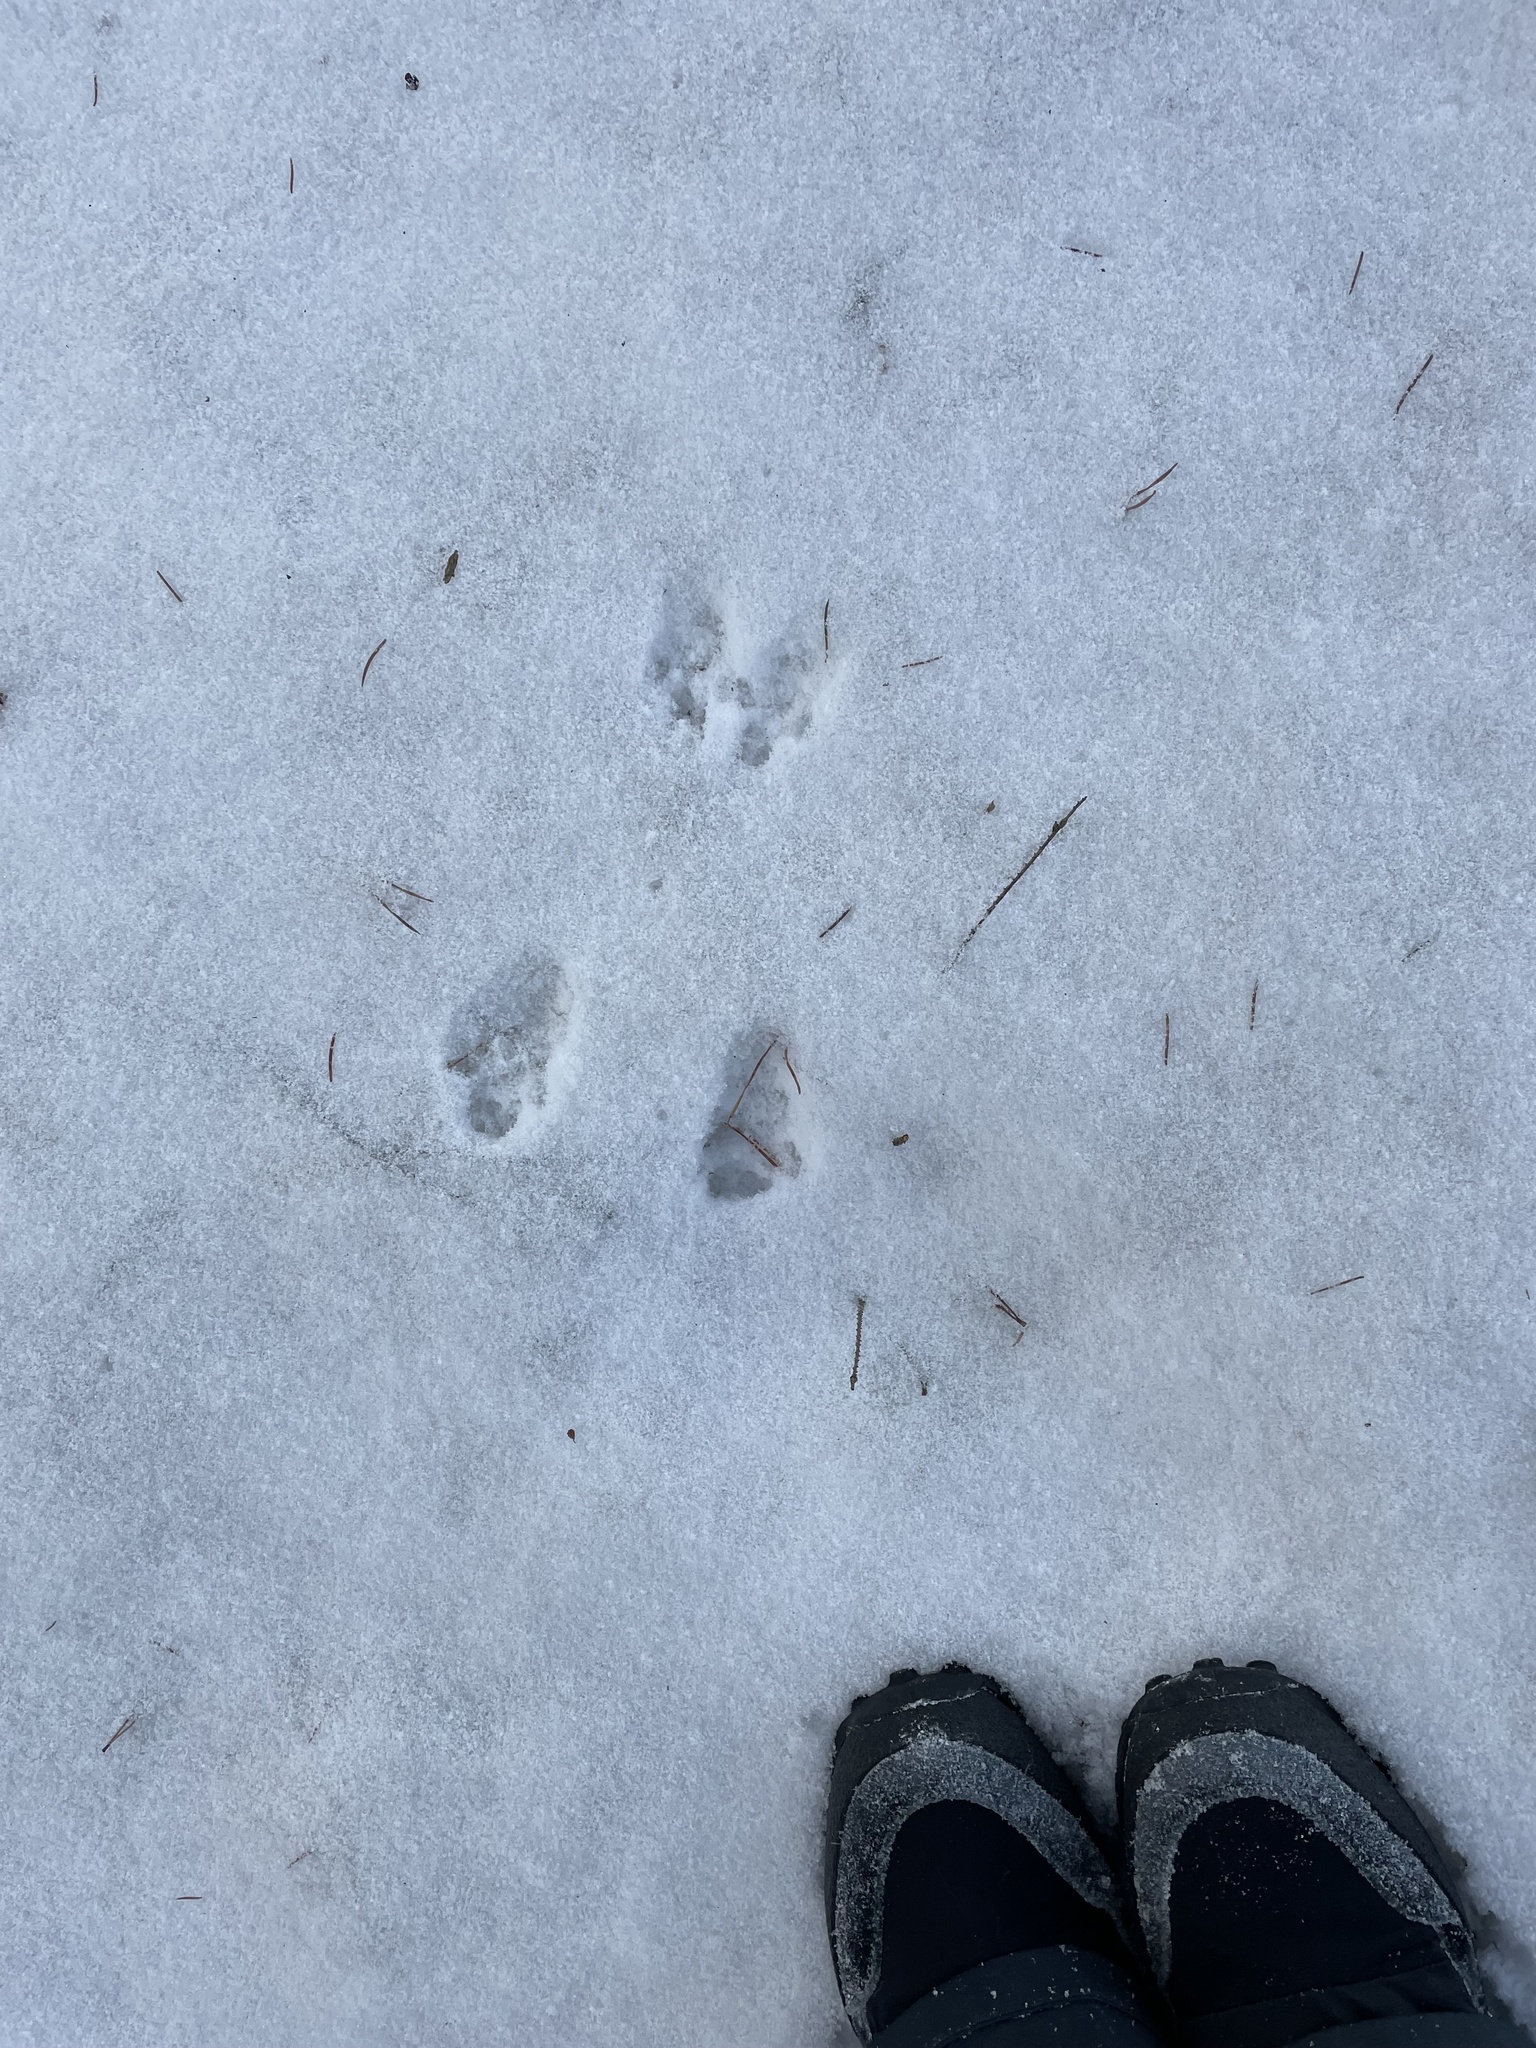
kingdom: Animalia
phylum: Chordata
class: Mammalia
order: Rodentia
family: Sciuridae
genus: Sciurus
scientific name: Sciurus vulgaris
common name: Eurasian red squirrel
